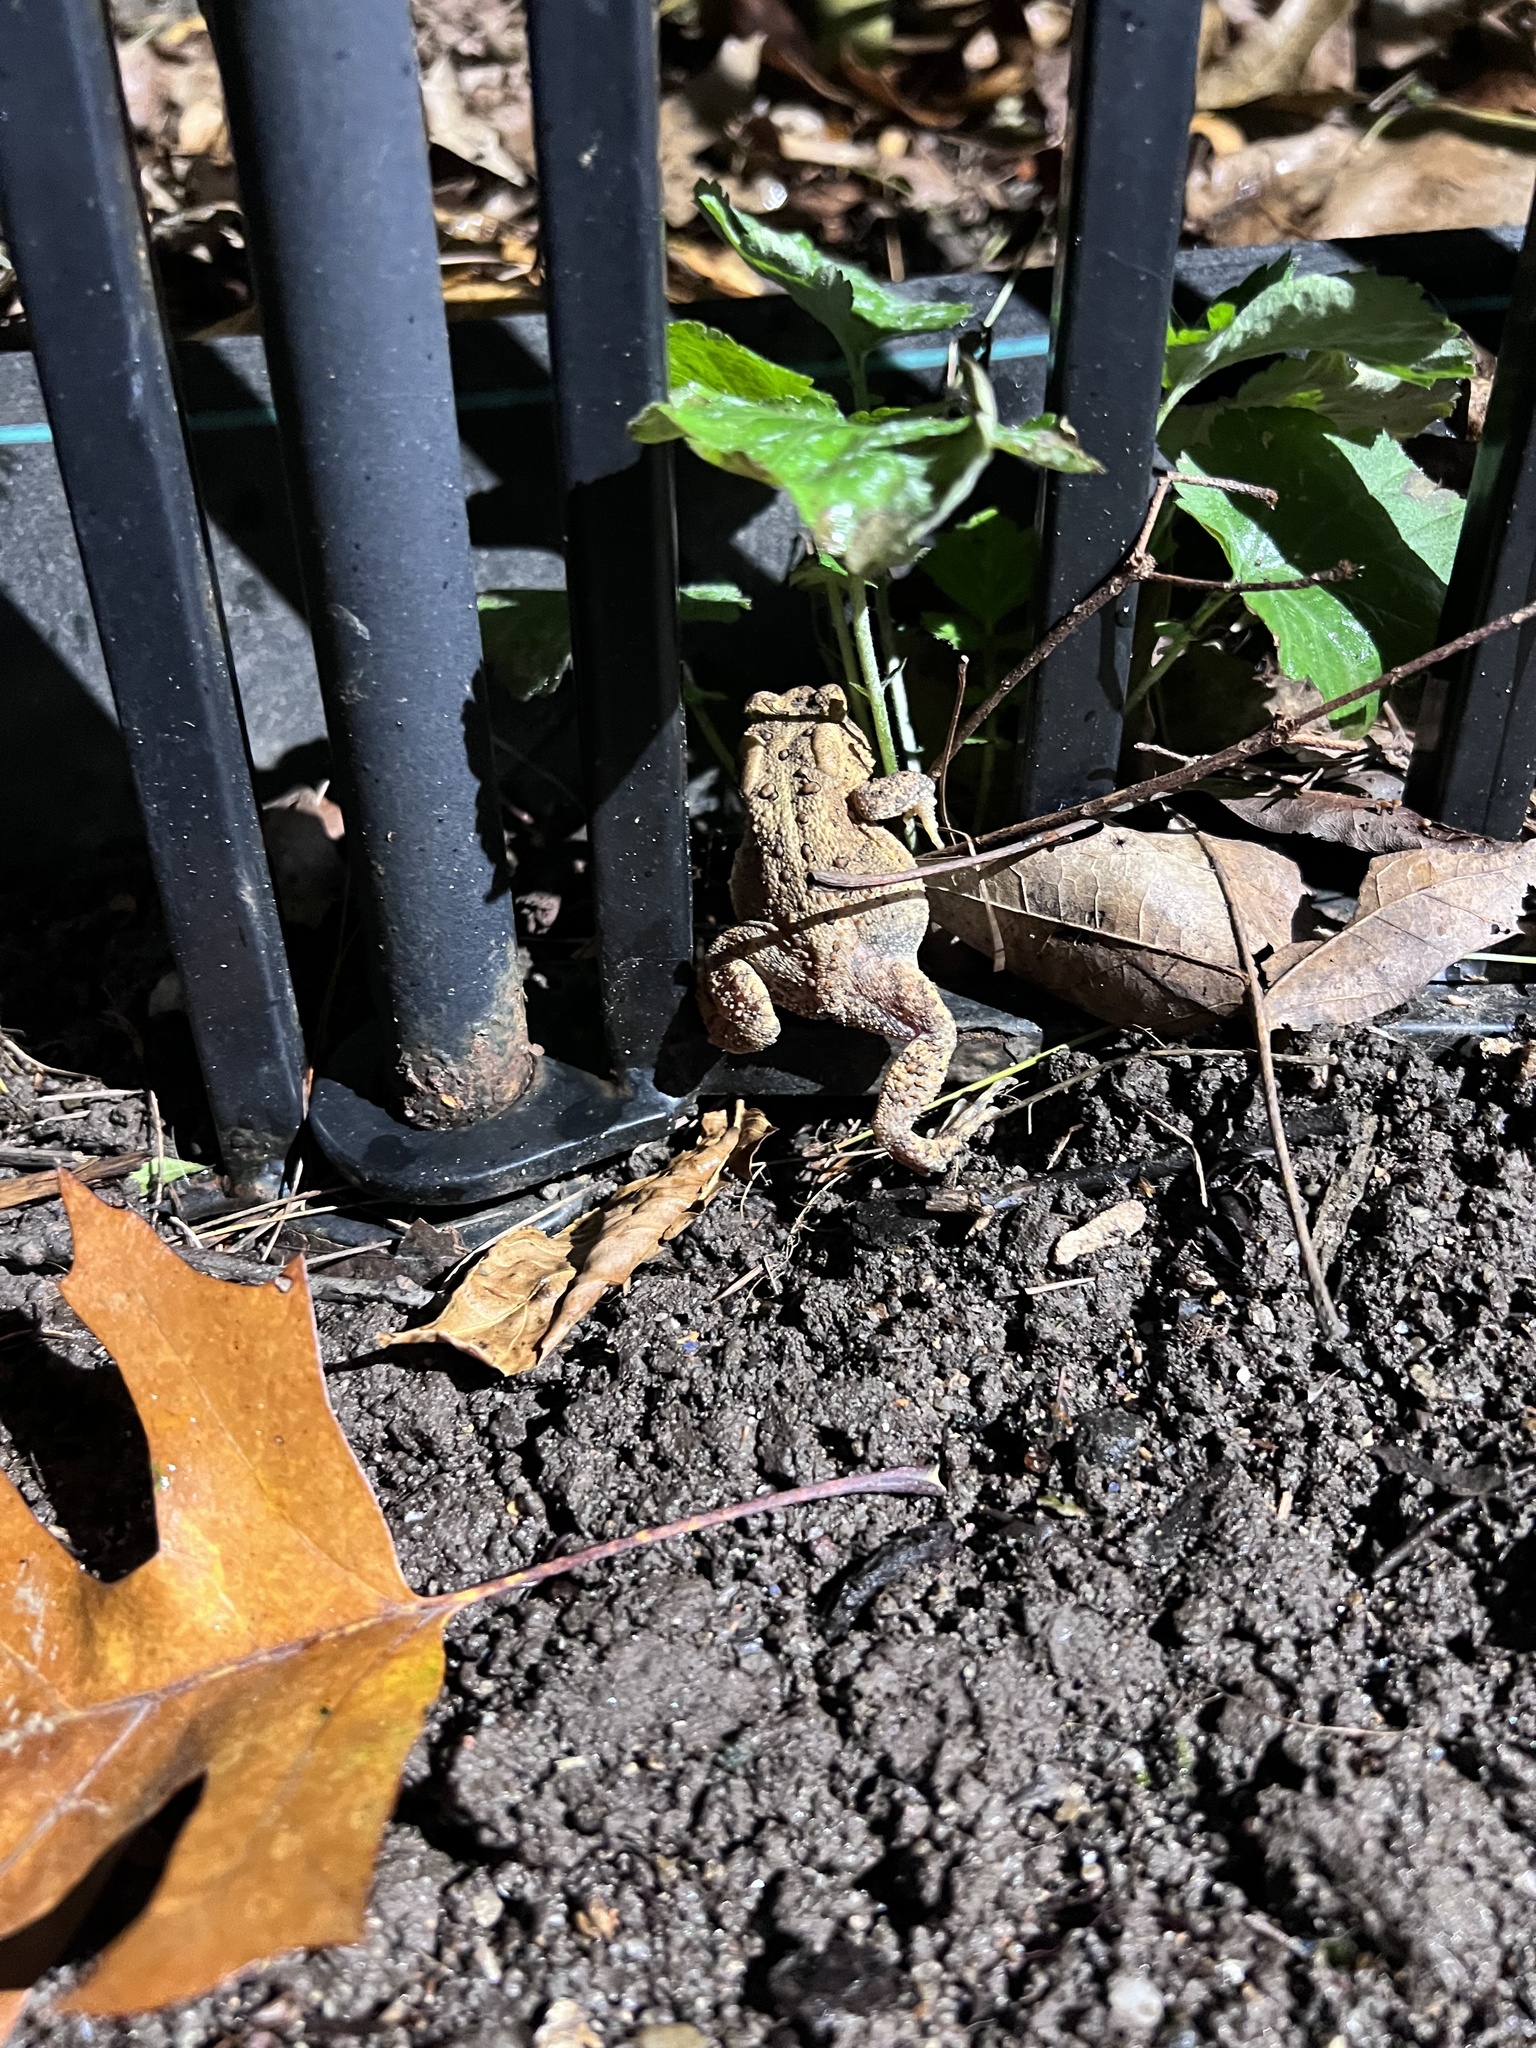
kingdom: Animalia
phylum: Chordata
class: Amphibia
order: Anura
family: Bufonidae
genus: Anaxyrus
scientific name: Anaxyrus americanus
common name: American toad
